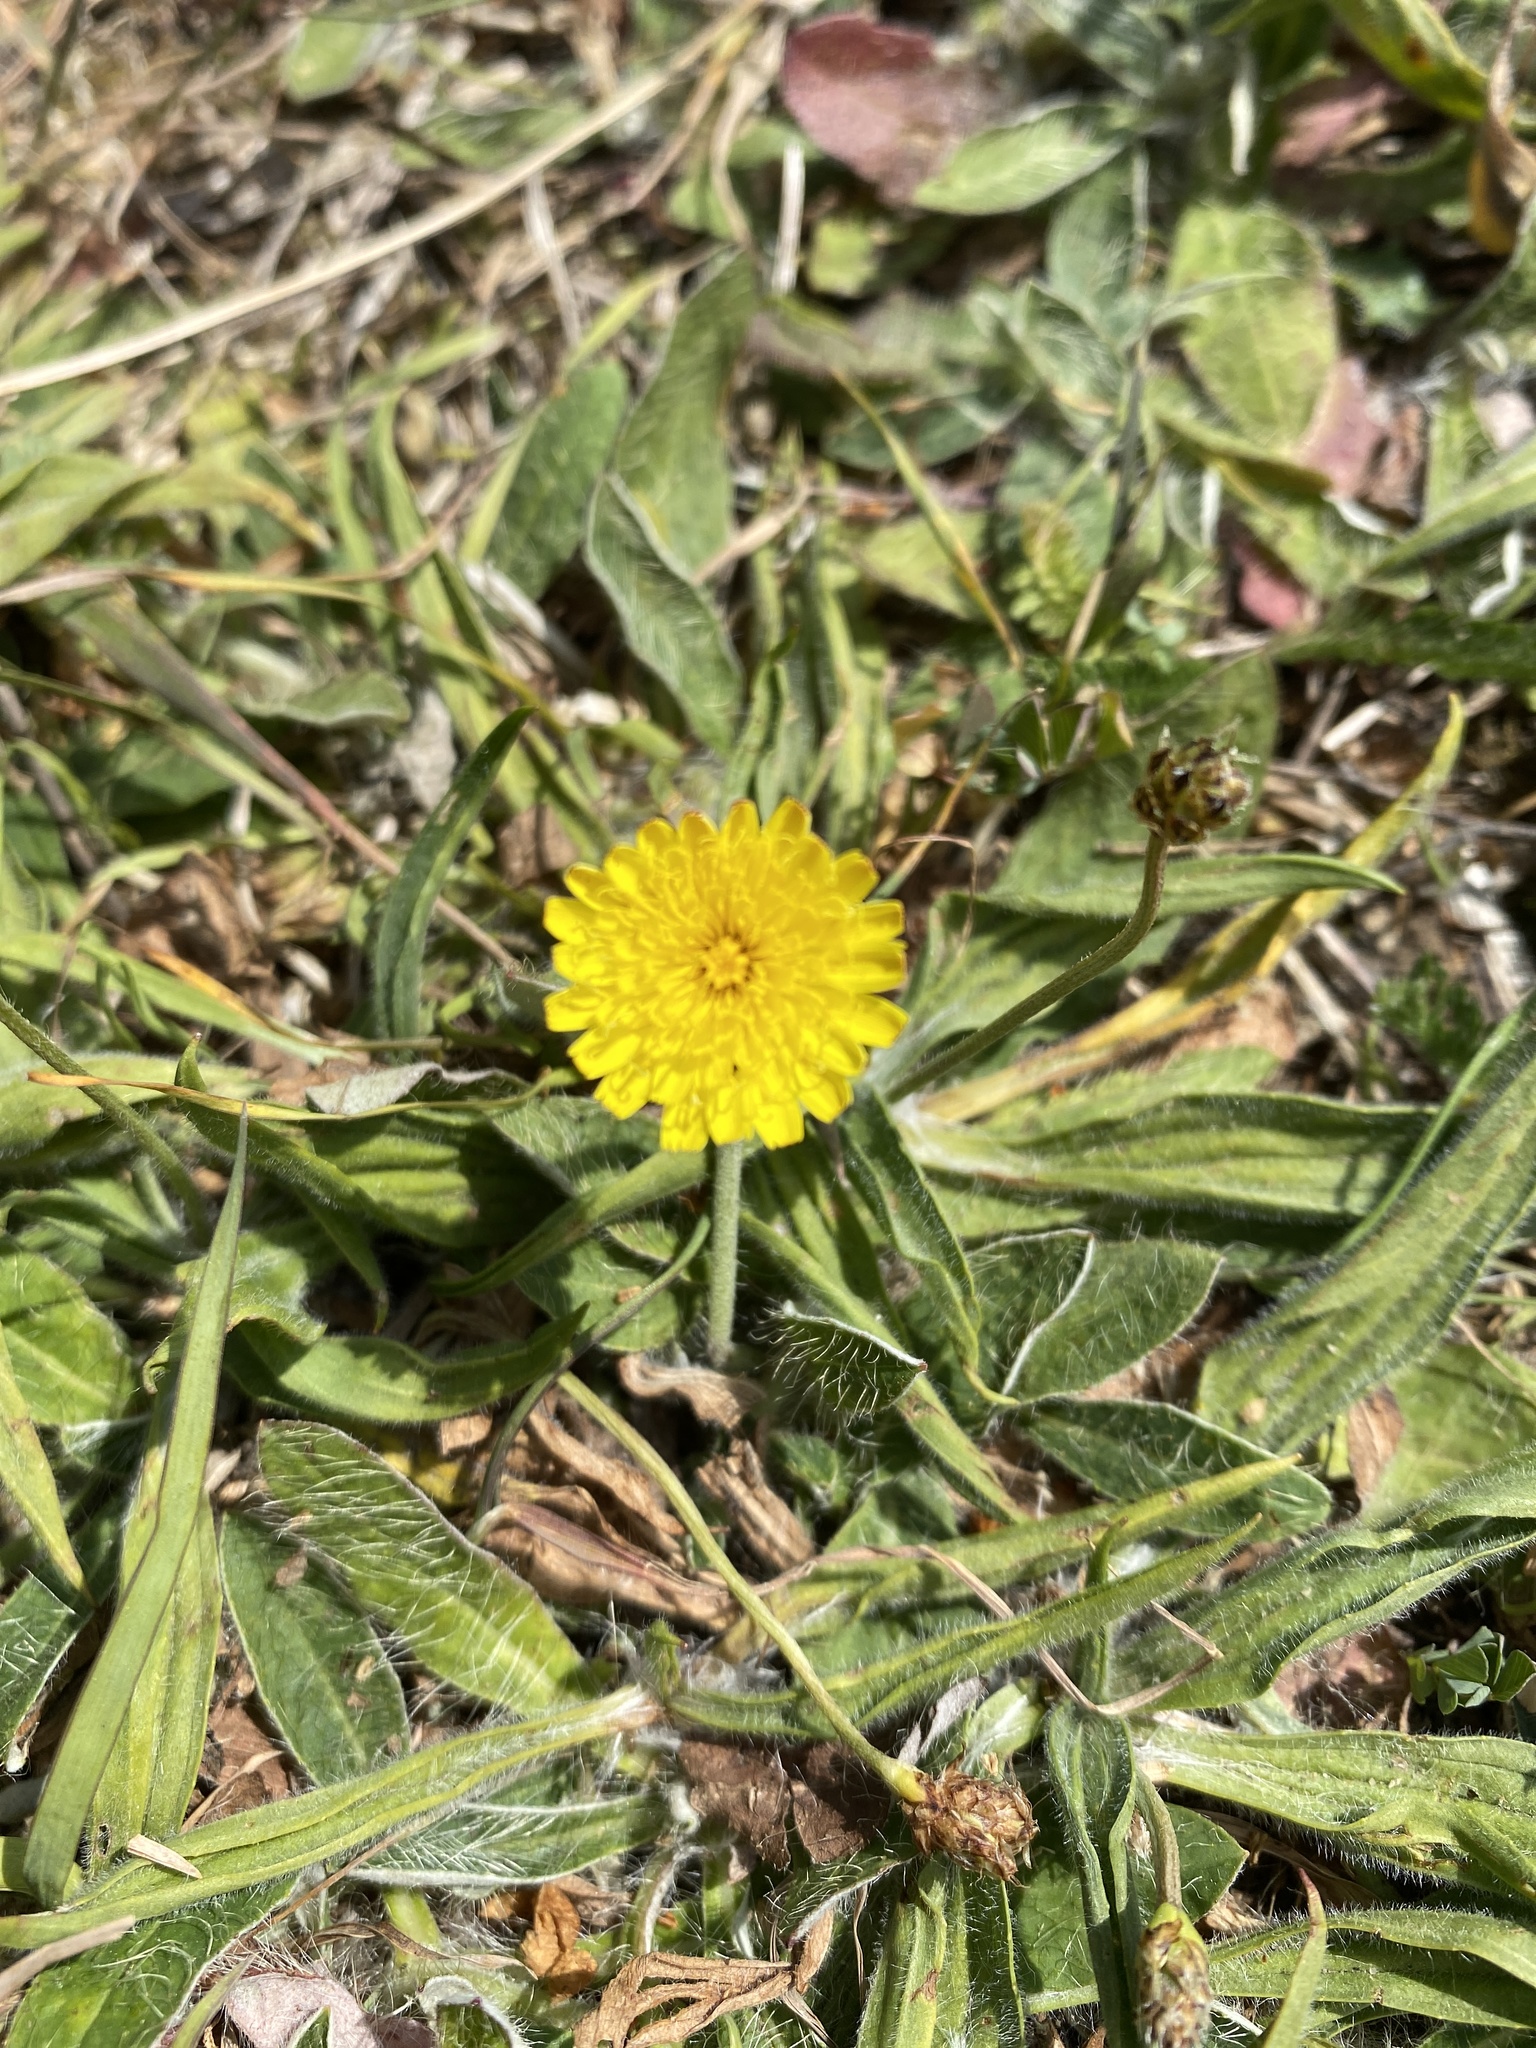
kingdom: Plantae
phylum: Tracheophyta
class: Magnoliopsida
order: Asterales
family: Asteraceae
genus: Pilosella
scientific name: Pilosella officinarum
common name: Mouse-ear hawkweed
